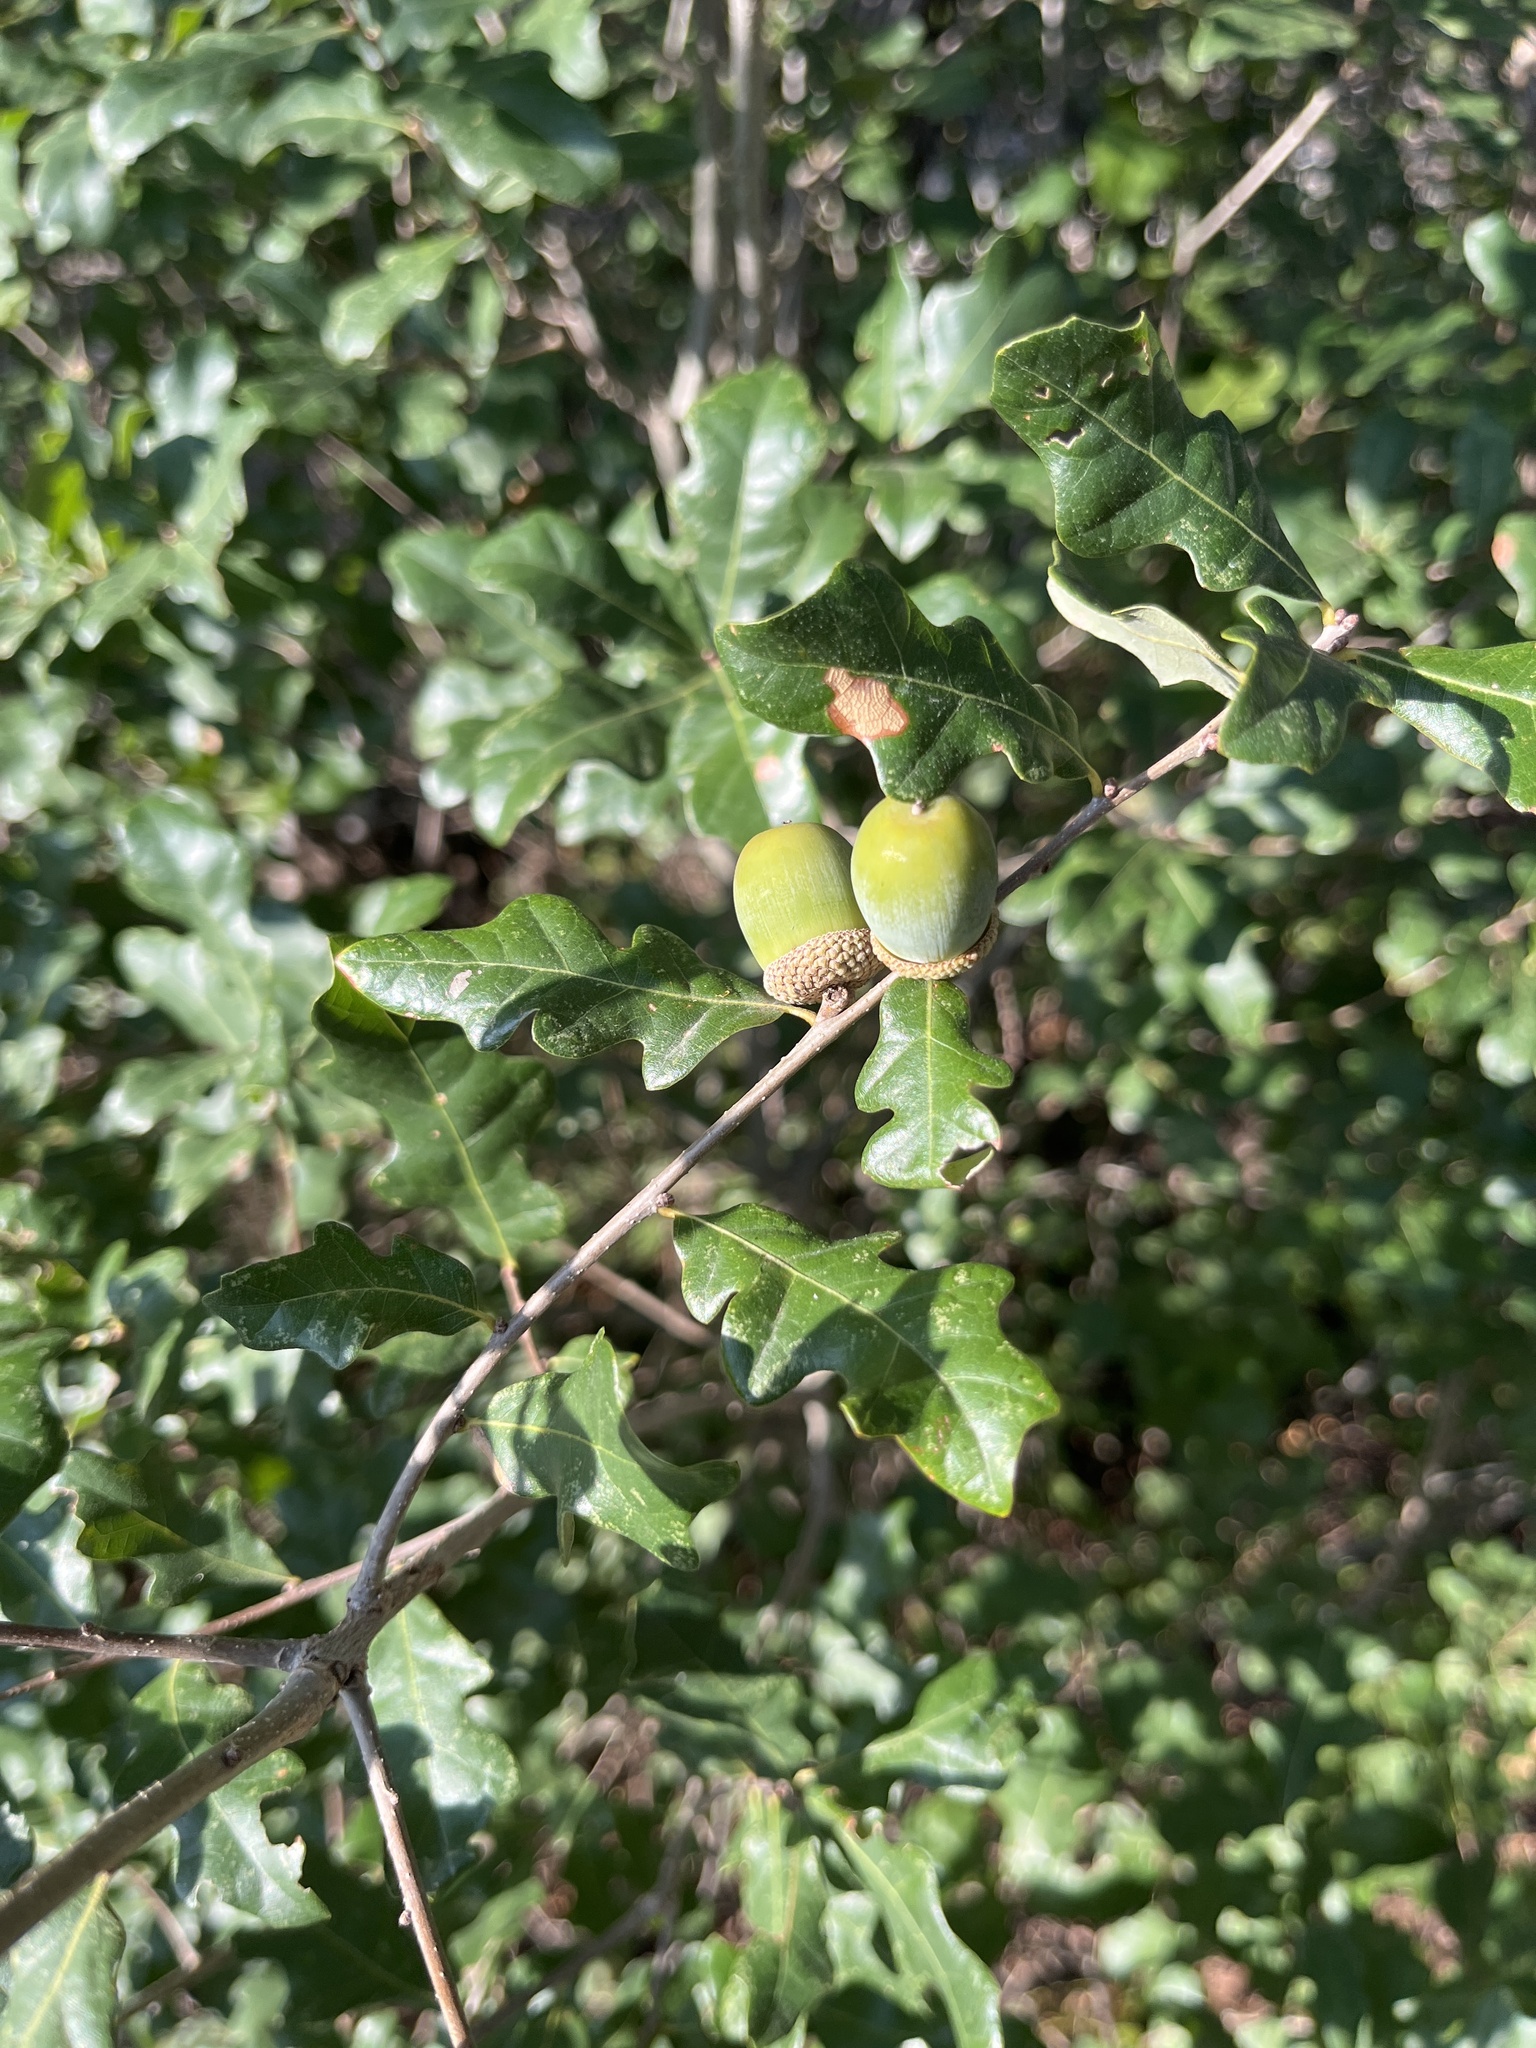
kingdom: Plantae
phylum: Tracheophyta
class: Magnoliopsida
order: Fagales
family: Fagaceae
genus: Quercus
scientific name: Quercus sinuata
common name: Durand oak
